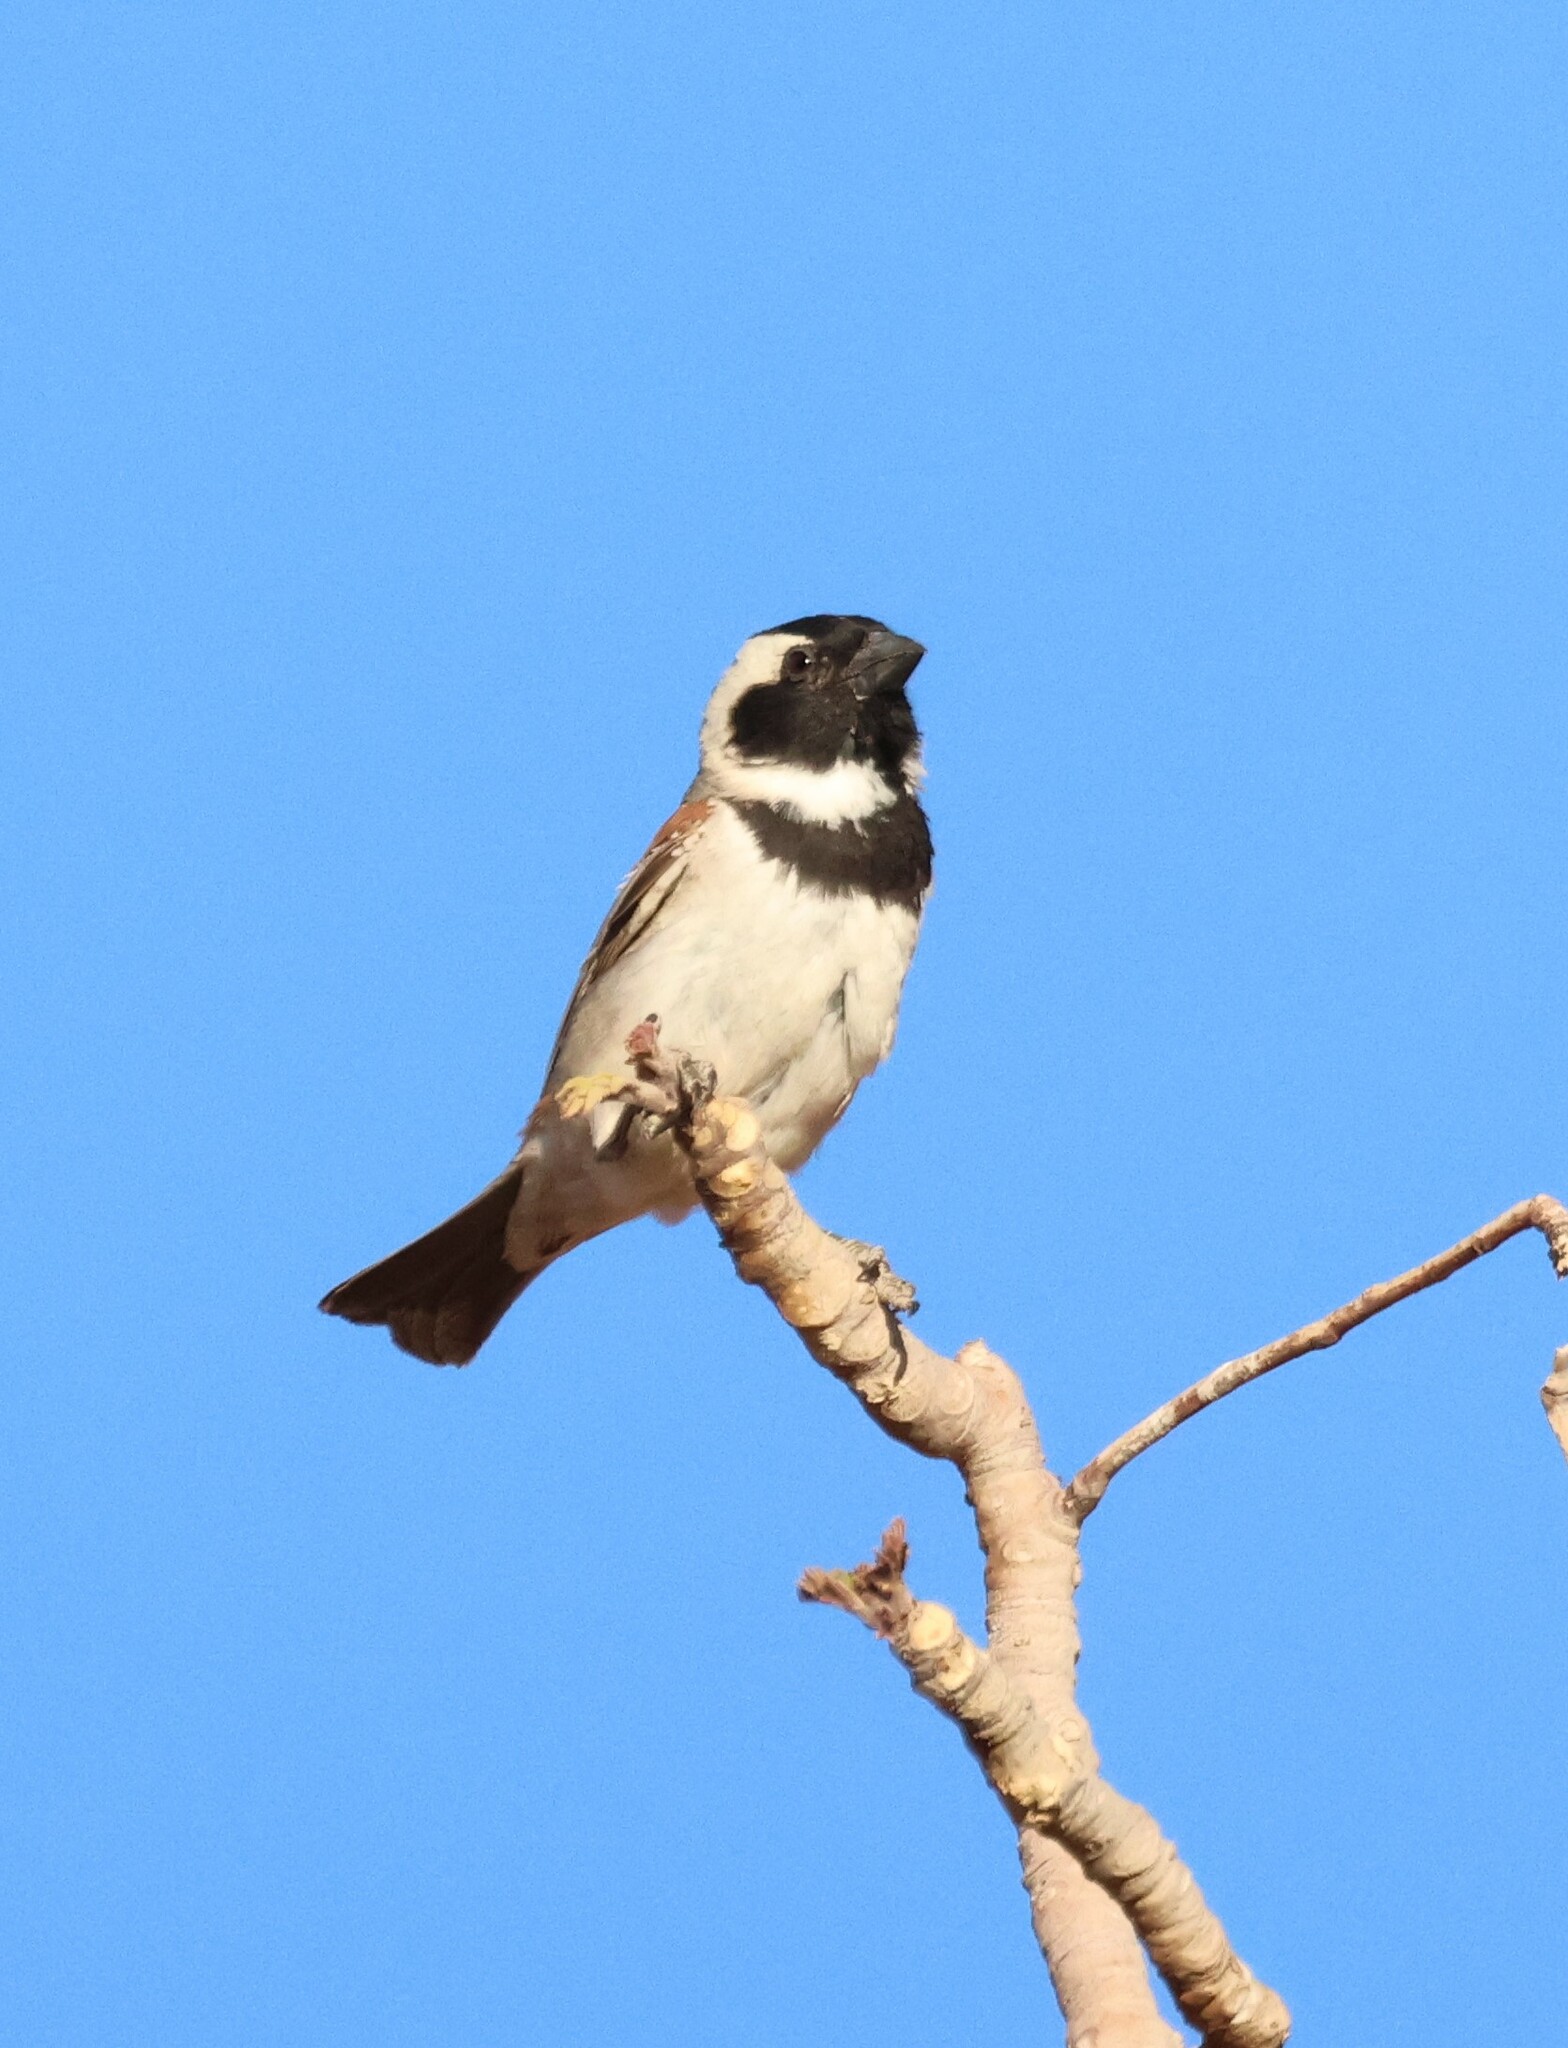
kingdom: Animalia
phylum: Chordata
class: Aves
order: Passeriformes
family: Passeridae
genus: Passer
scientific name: Passer melanurus
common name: Cape sparrow
